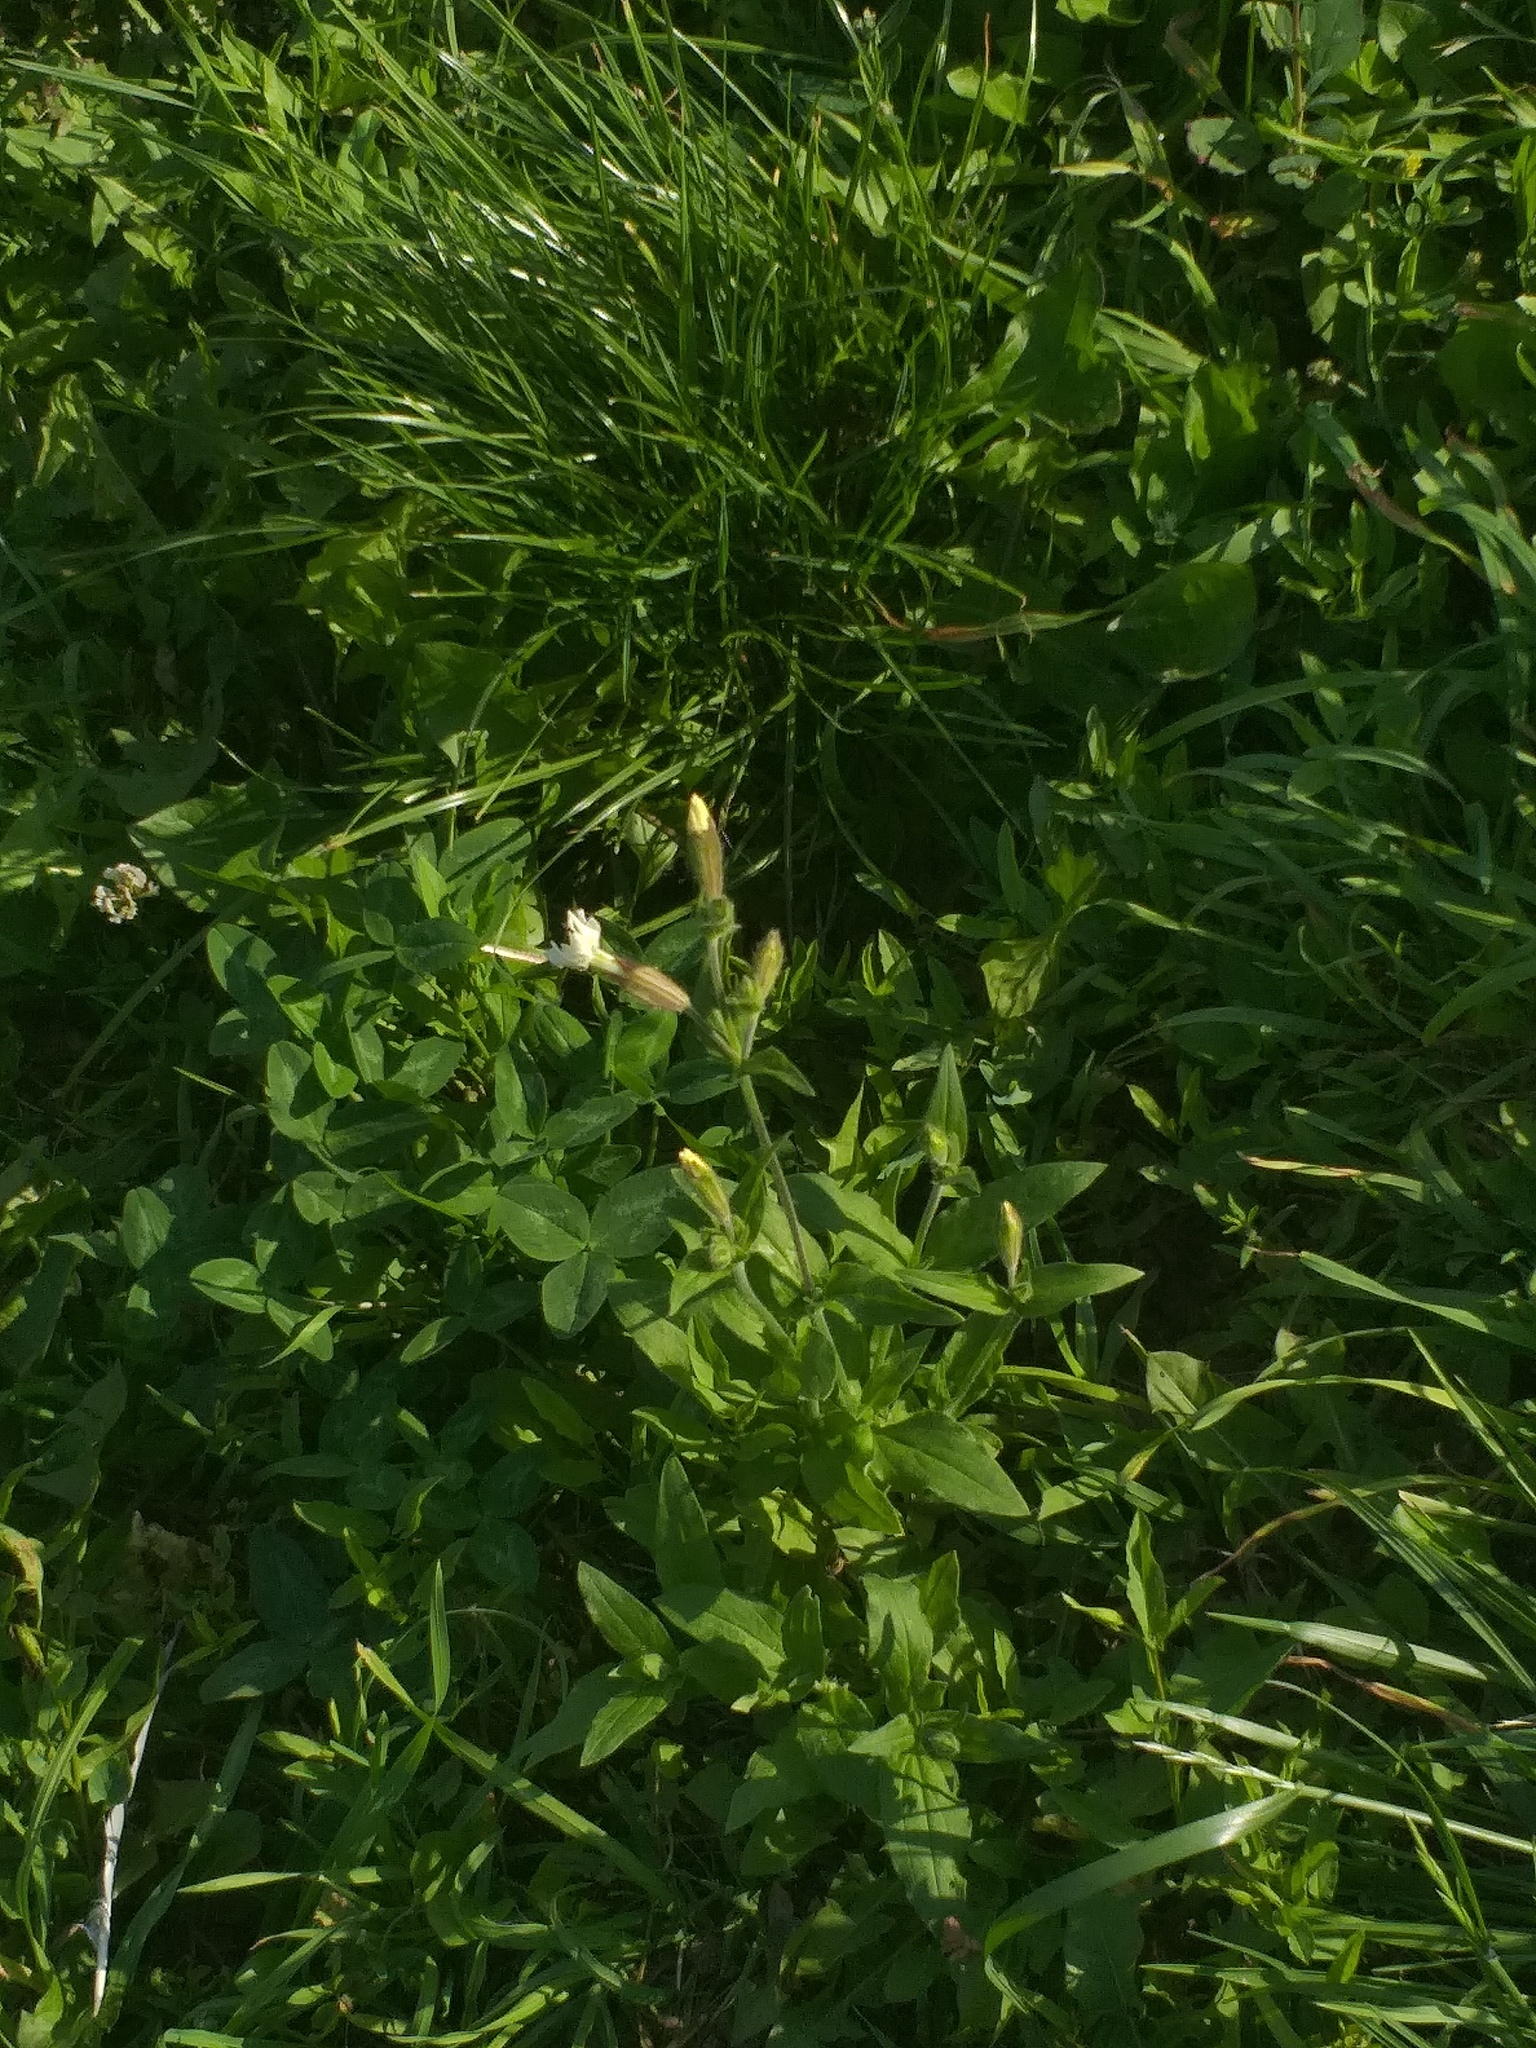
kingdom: Plantae
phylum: Tracheophyta
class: Magnoliopsida
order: Caryophyllales
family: Caryophyllaceae
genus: Silene
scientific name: Silene latifolia
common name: White campion
